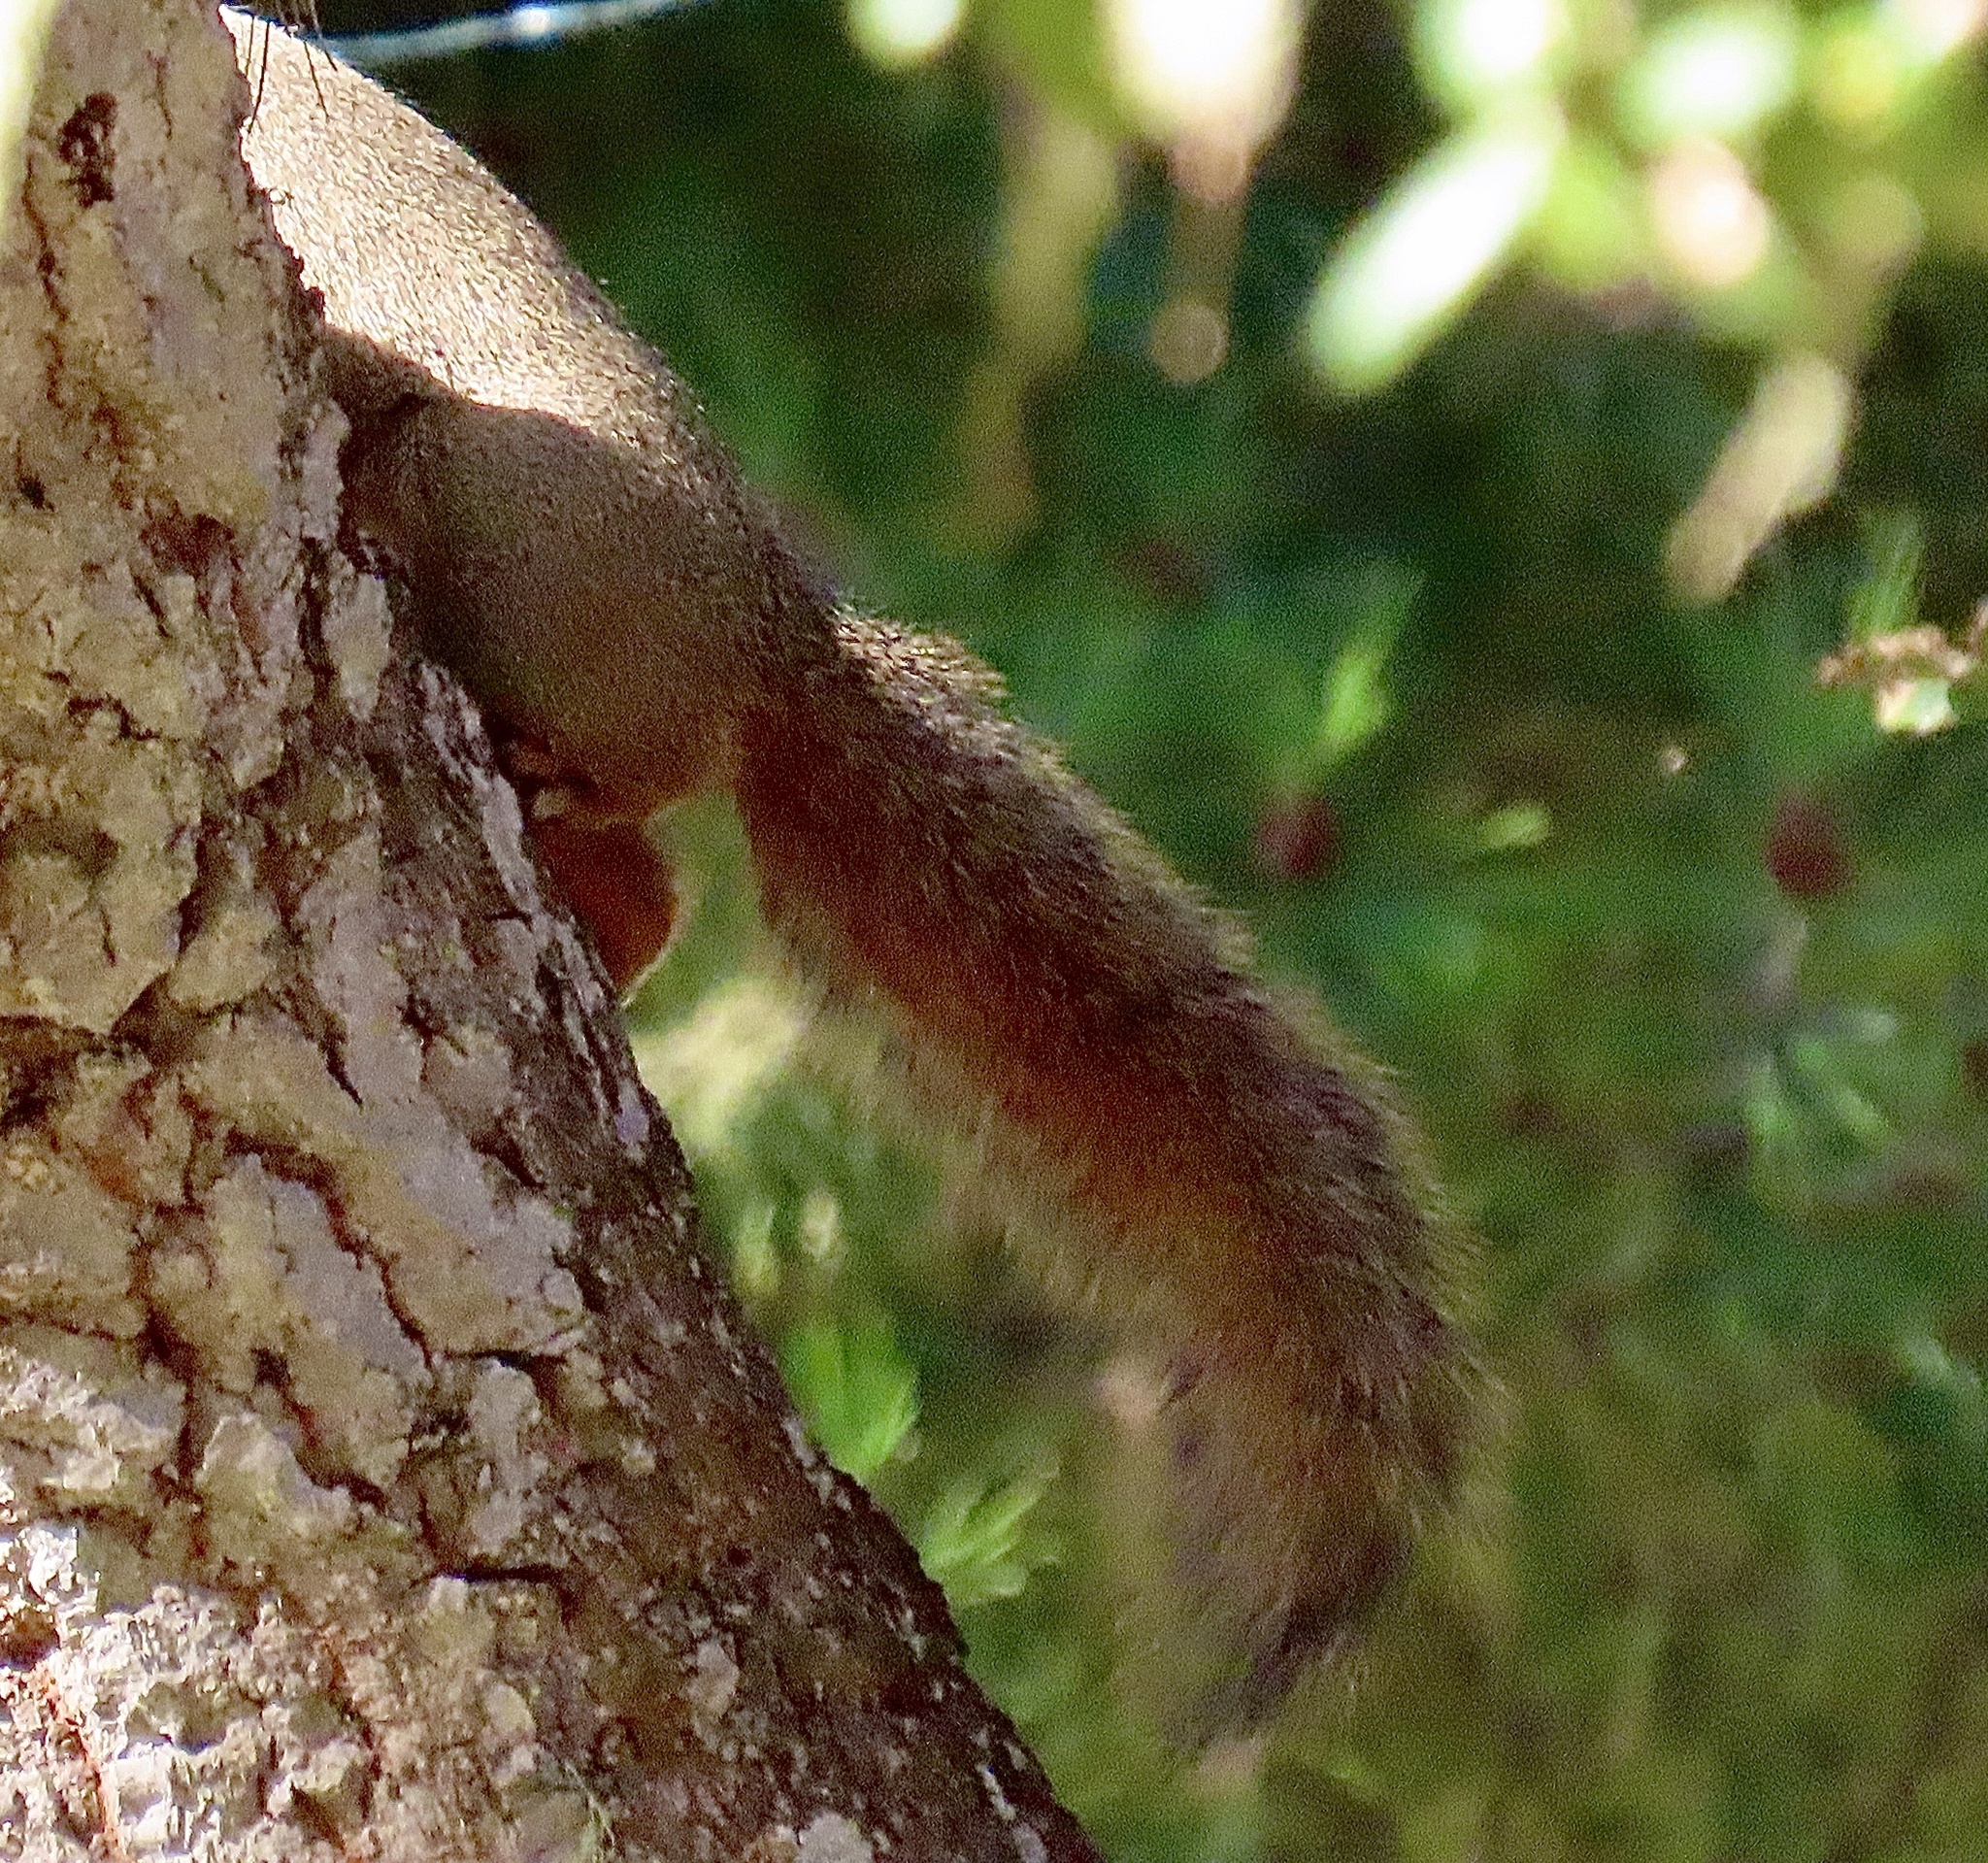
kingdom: Animalia
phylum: Chordata
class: Mammalia
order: Rodentia
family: Sciuridae
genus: Sciurus
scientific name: Sciurus niger
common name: Fox squirrel
